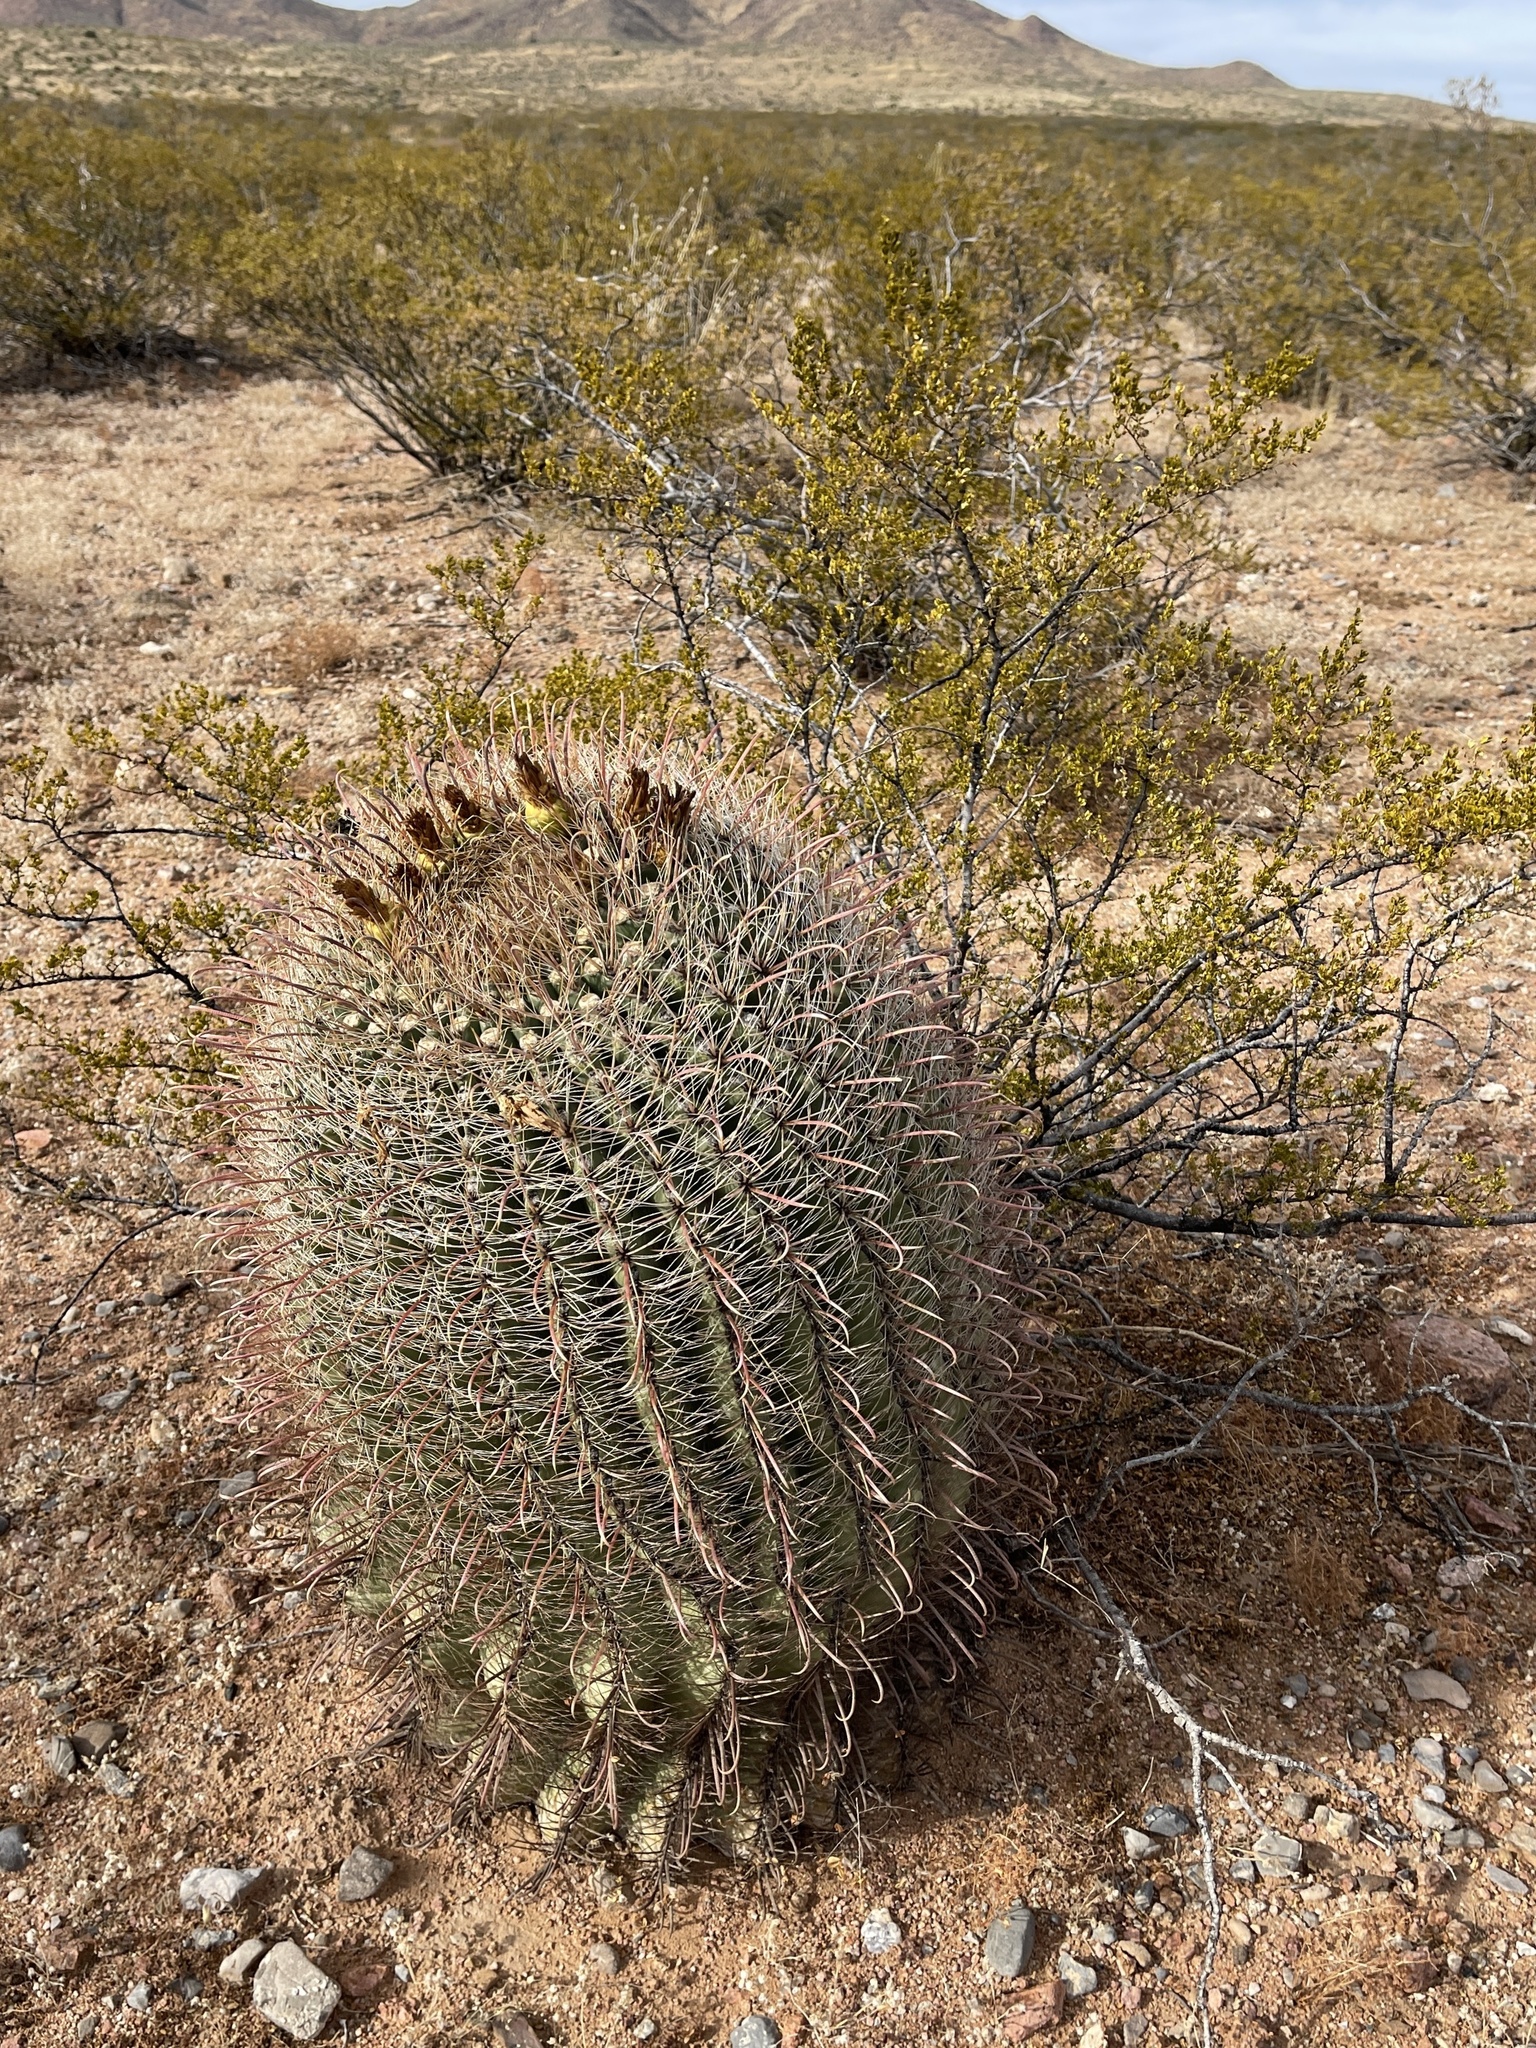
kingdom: Plantae
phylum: Tracheophyta
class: Magnoliopsida
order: Caryophyllales
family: Cactaceae
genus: Ferocactus
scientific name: Ferocactus wislizeni
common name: Candy barrel cactus
